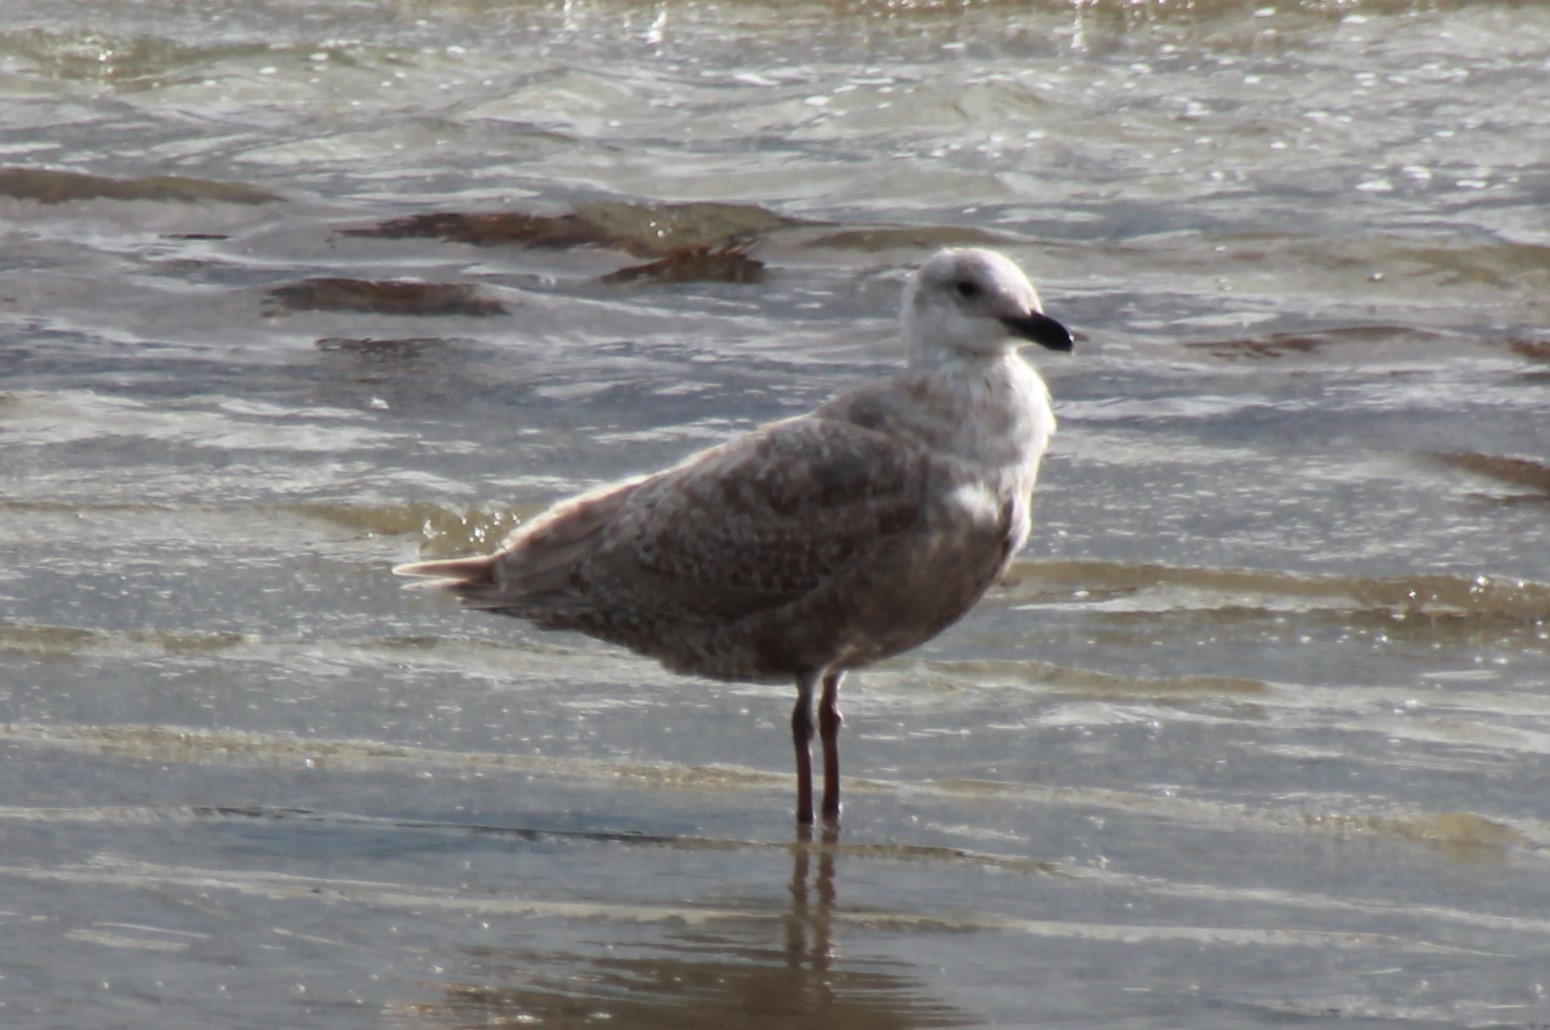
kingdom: Animalia
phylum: Chordata
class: Aves
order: Charadriiformes
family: Laridae
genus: Larus
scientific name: Larus glaucescens
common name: Glaucous-winged gull
